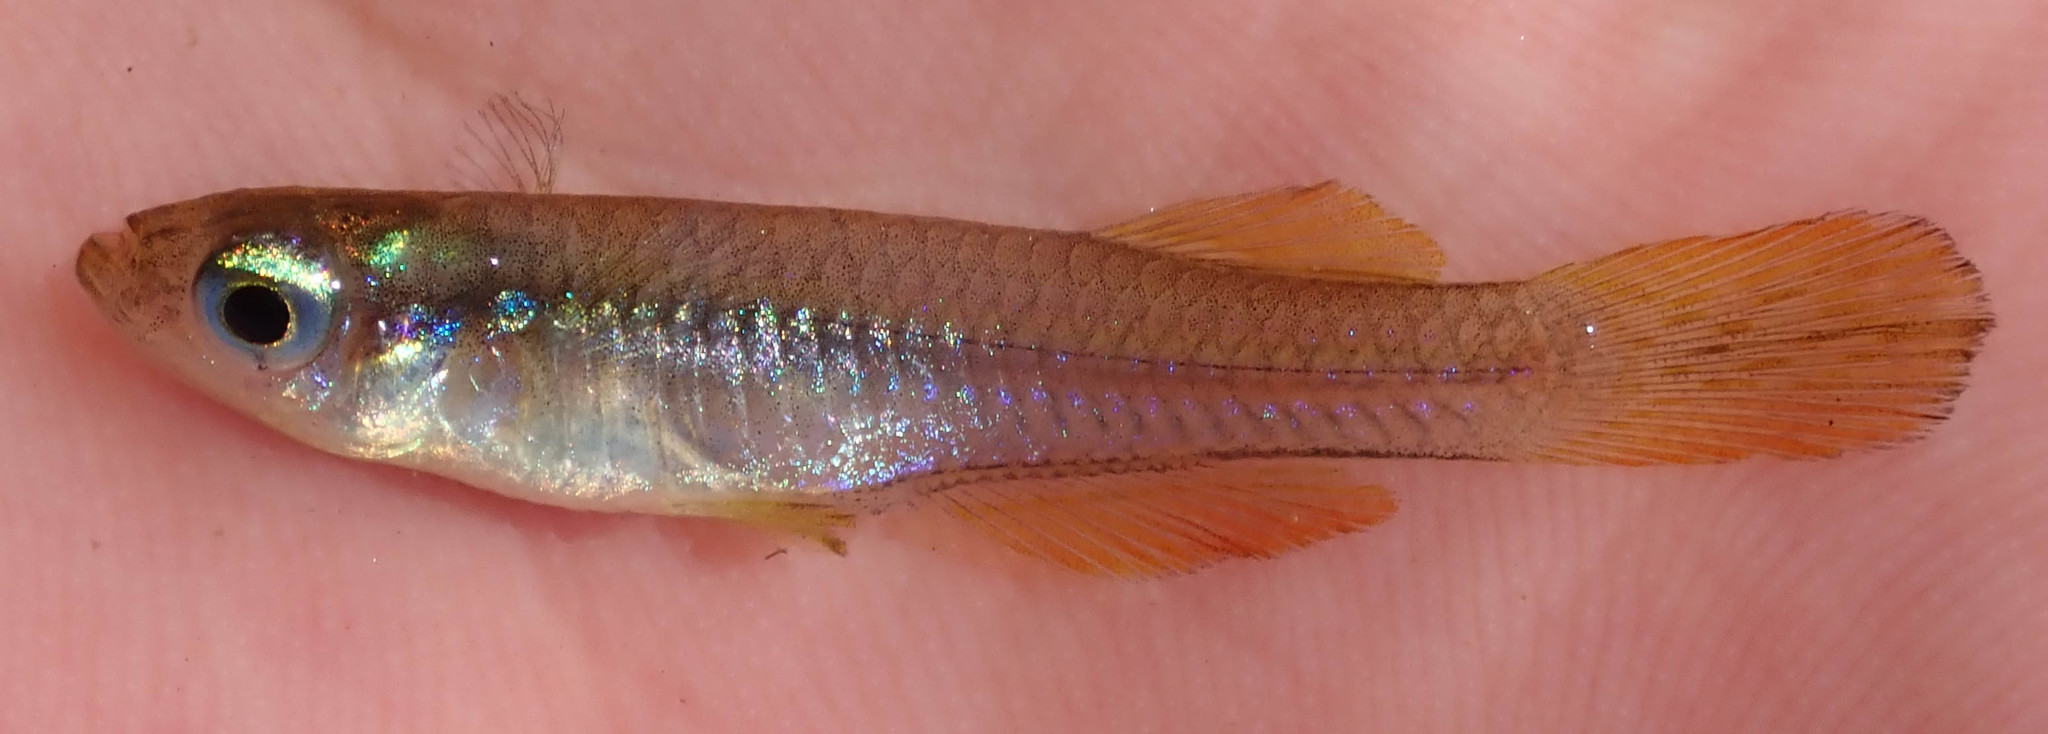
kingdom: Animalia
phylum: Chordata
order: Cyprinodontiformes
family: Poeciliidae
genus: Micropanchax
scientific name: Micropanchax johnstoni
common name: Johnston's topminnow
